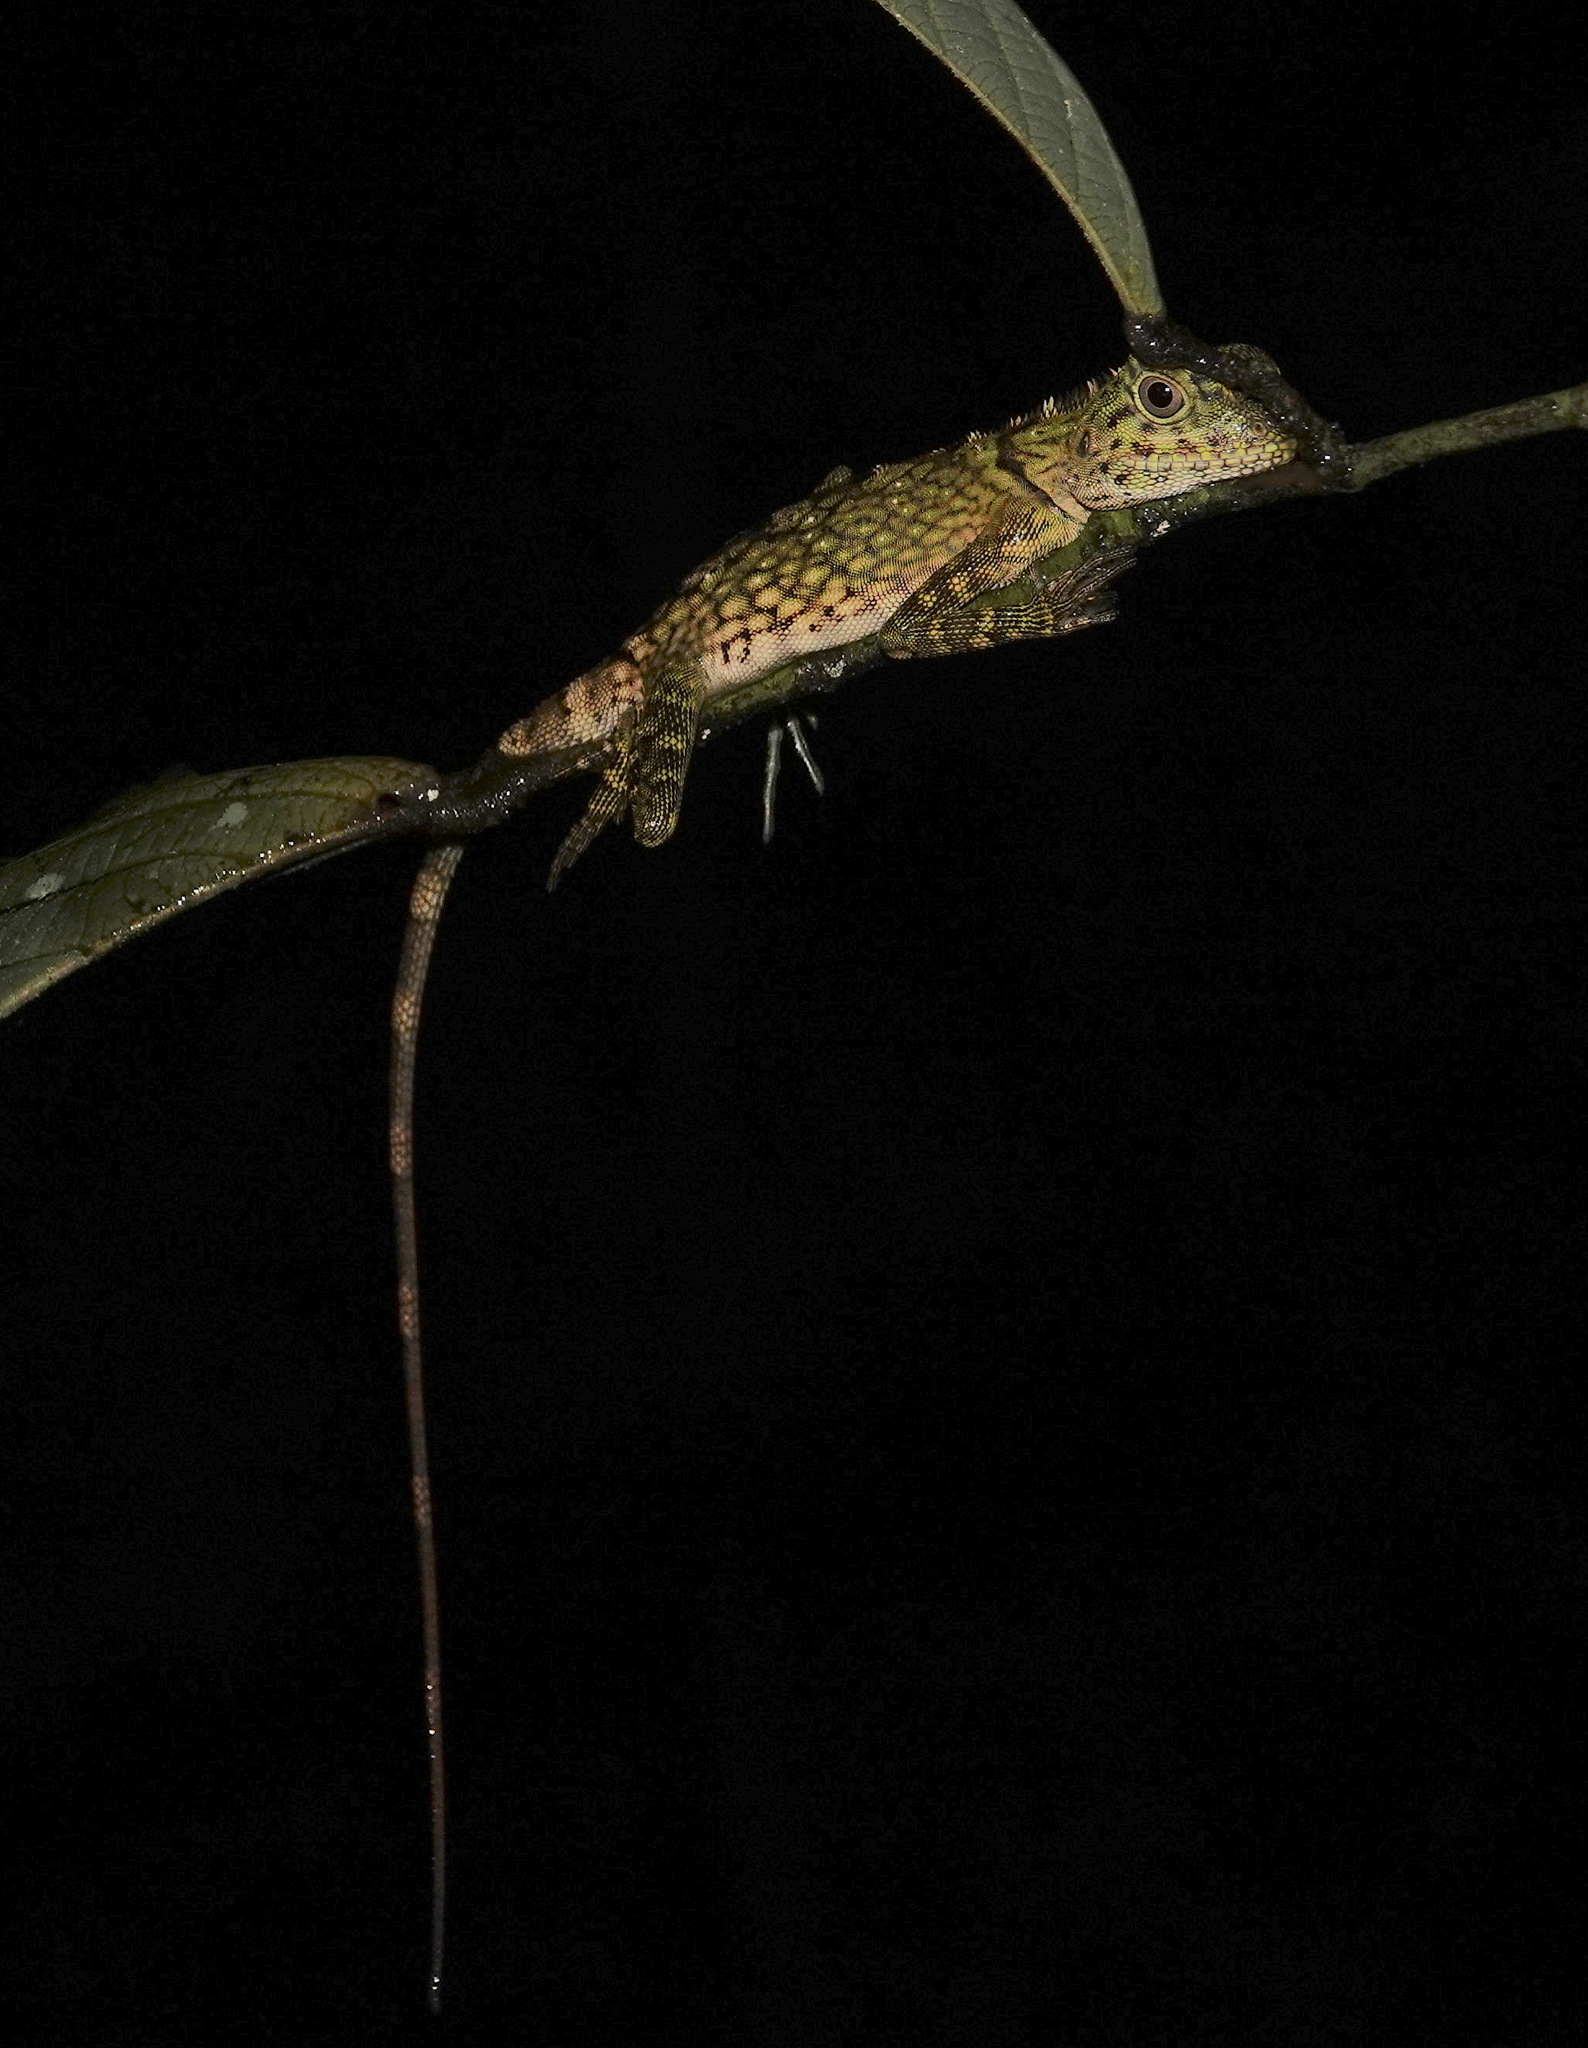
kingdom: Animalia
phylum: Chordata
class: Squamata
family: Agamidae
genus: Gonocephalus
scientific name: Gonocephalus bornensis
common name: Borneo forest dragon
